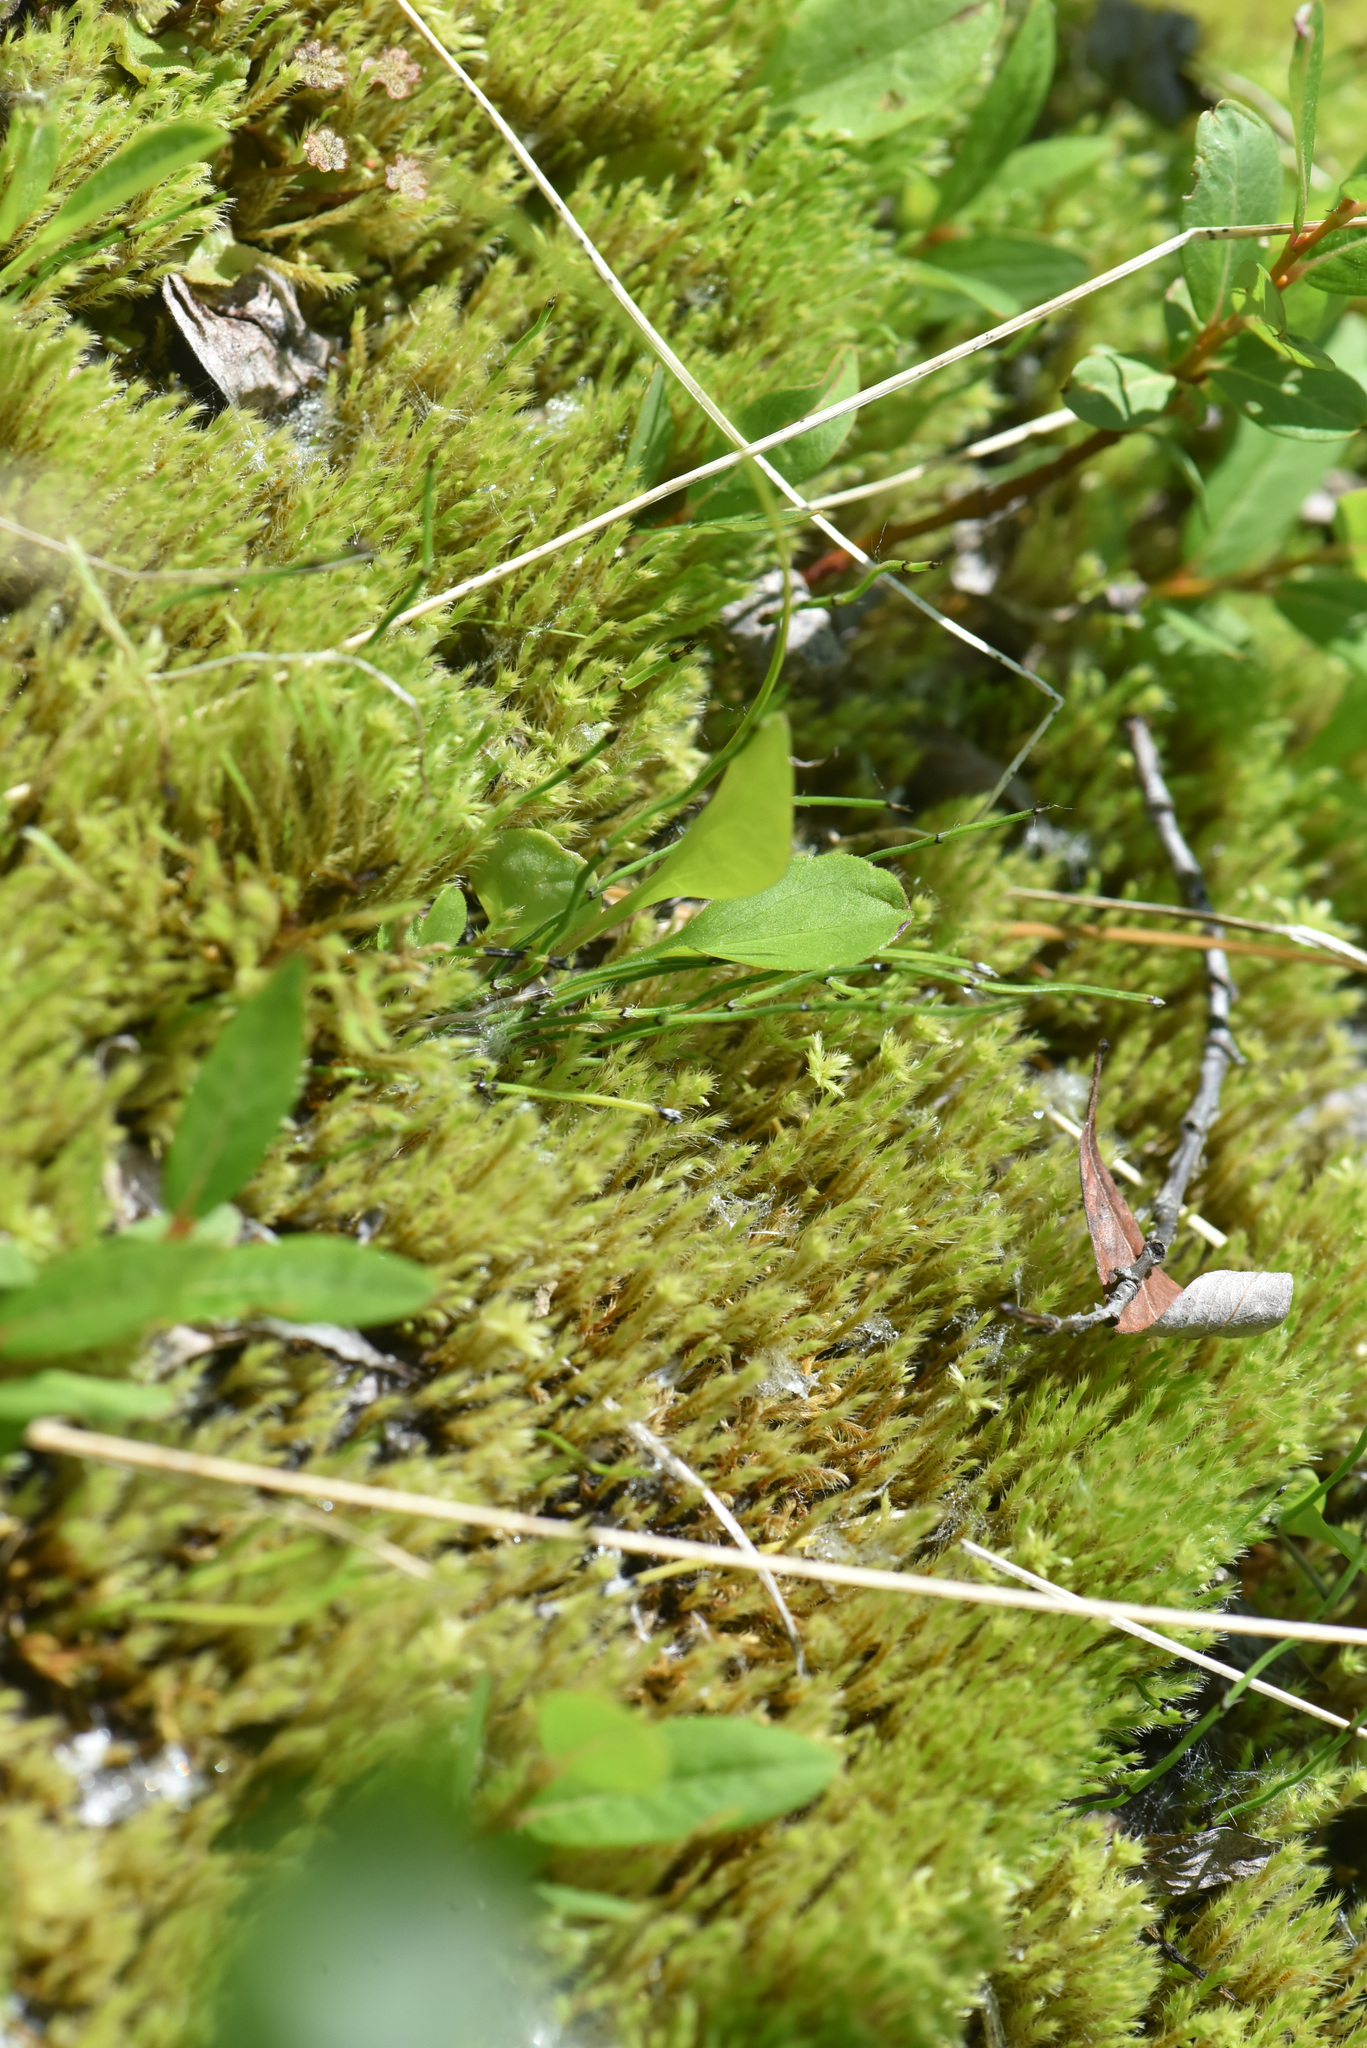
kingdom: Plantae
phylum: Tracheophyta
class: Polypodiopsida
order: Equisetales
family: Equisetaceae
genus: Equisetum
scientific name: Equisetum scirpoides
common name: Delicate horsetail
